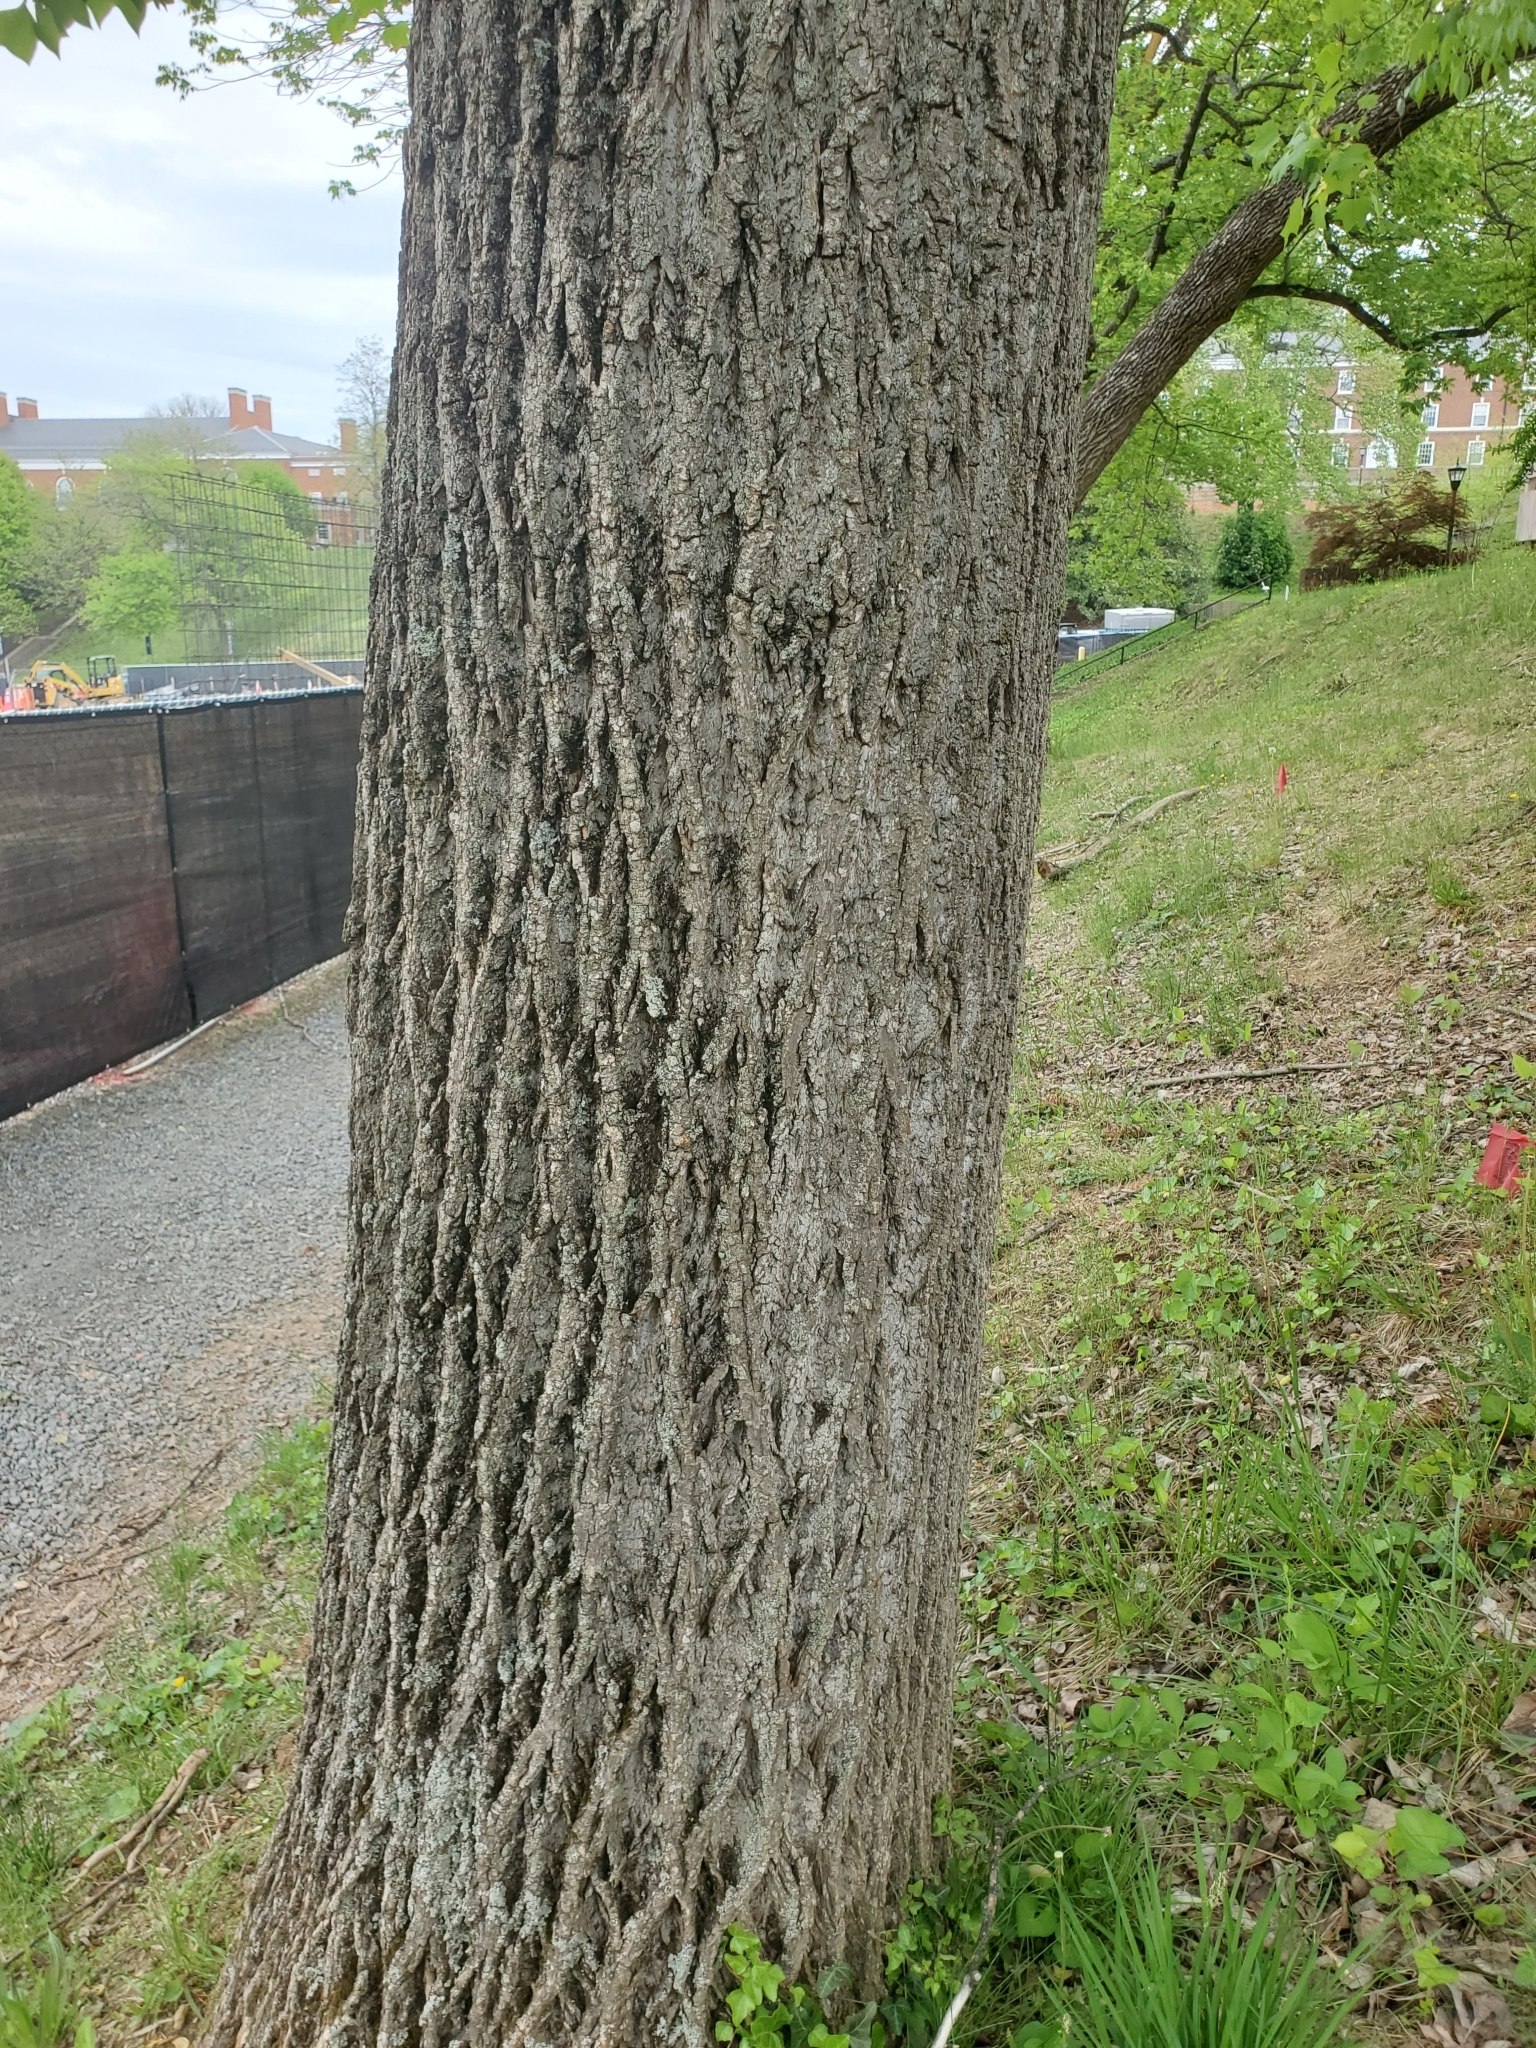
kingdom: Plantae
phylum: Tracheophyta
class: Magnoliopsida
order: Magnoliales
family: Magnoliaceae
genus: Liriodendron
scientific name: Liriodendron tulipifera
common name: Tulip tree
